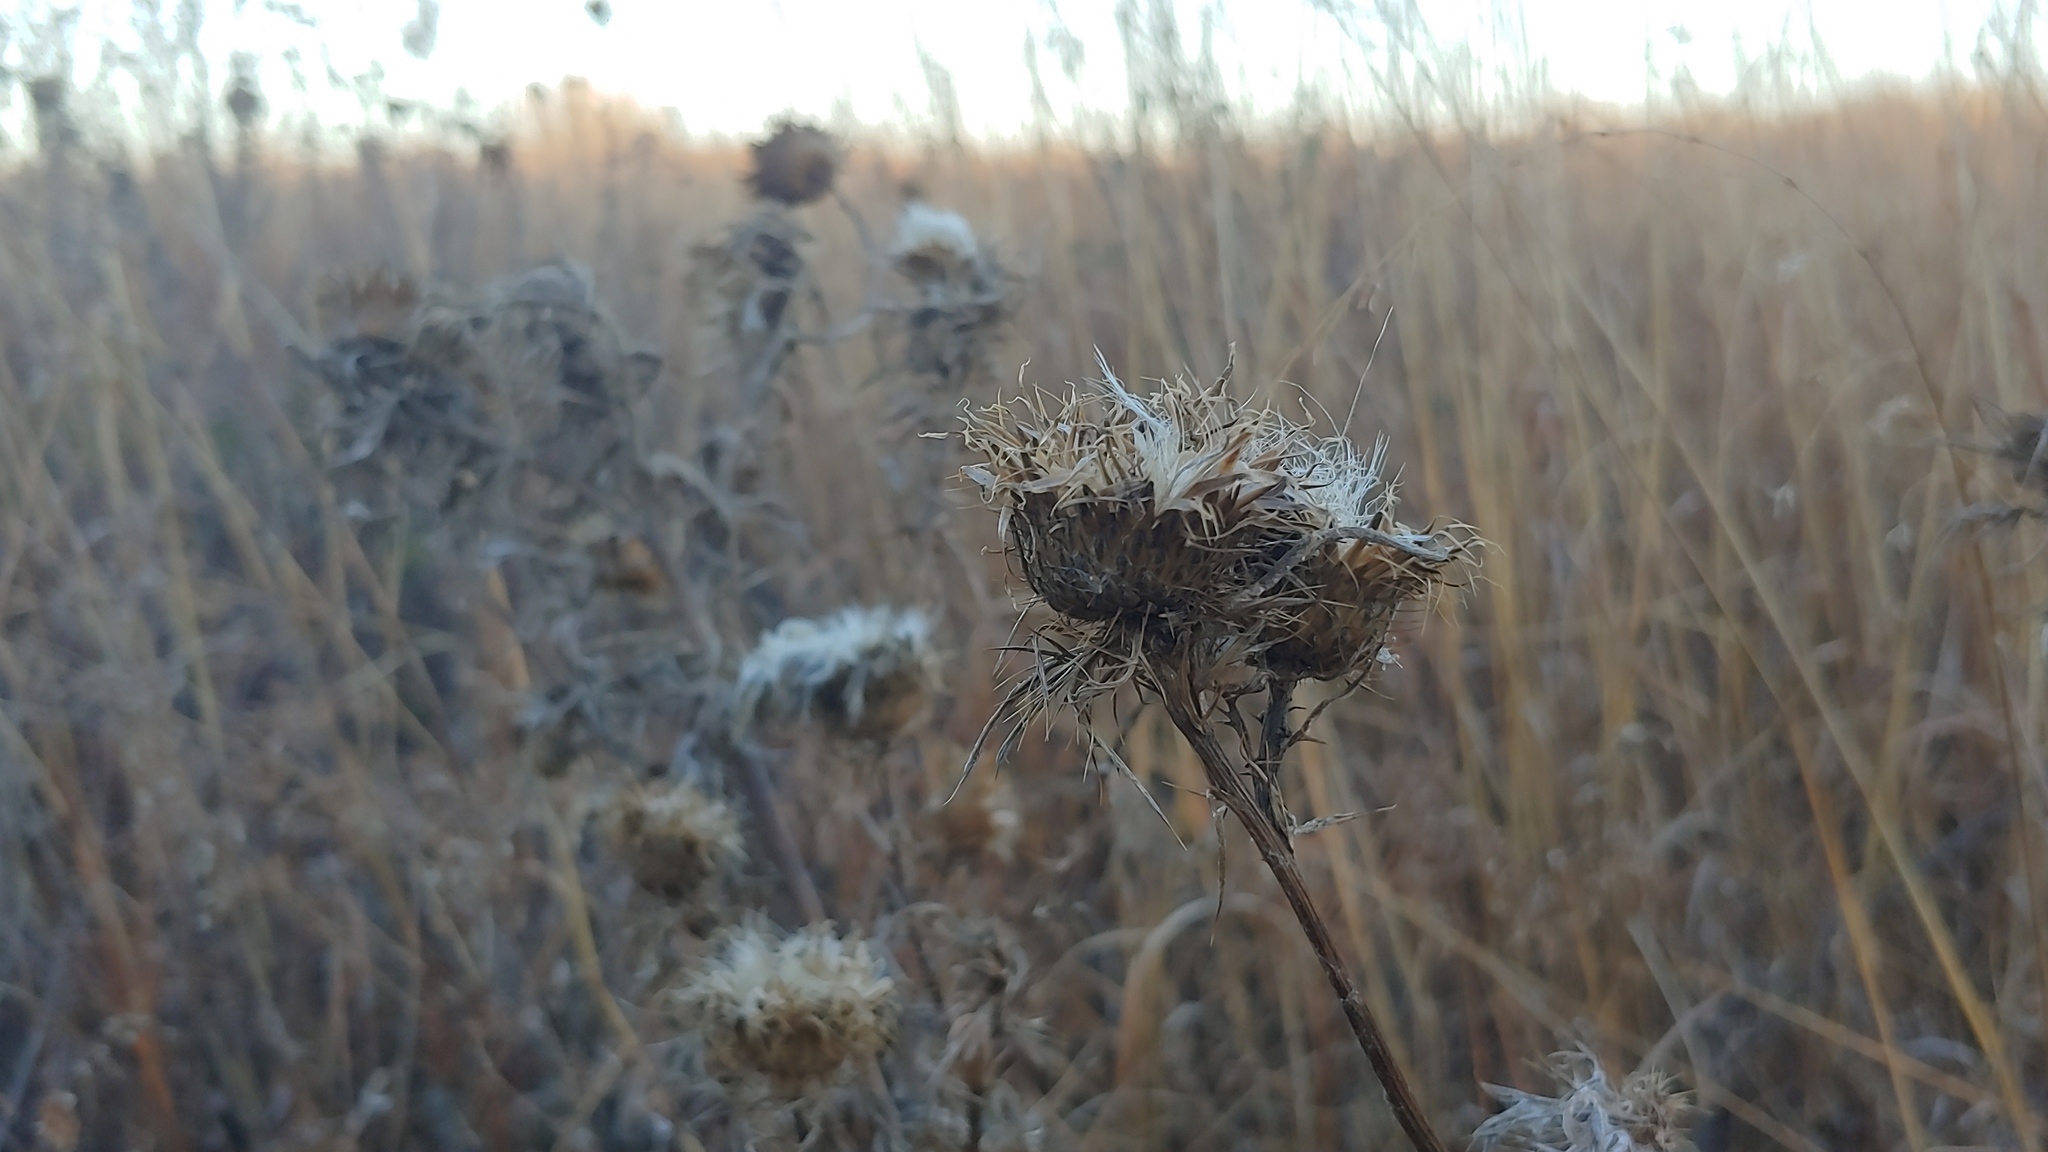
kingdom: Plantae
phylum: Tracheophyta
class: Magnoliopsida
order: Asterales
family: Asteraceae
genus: Cirsium
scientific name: Cirsium discolor
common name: Field thistle
